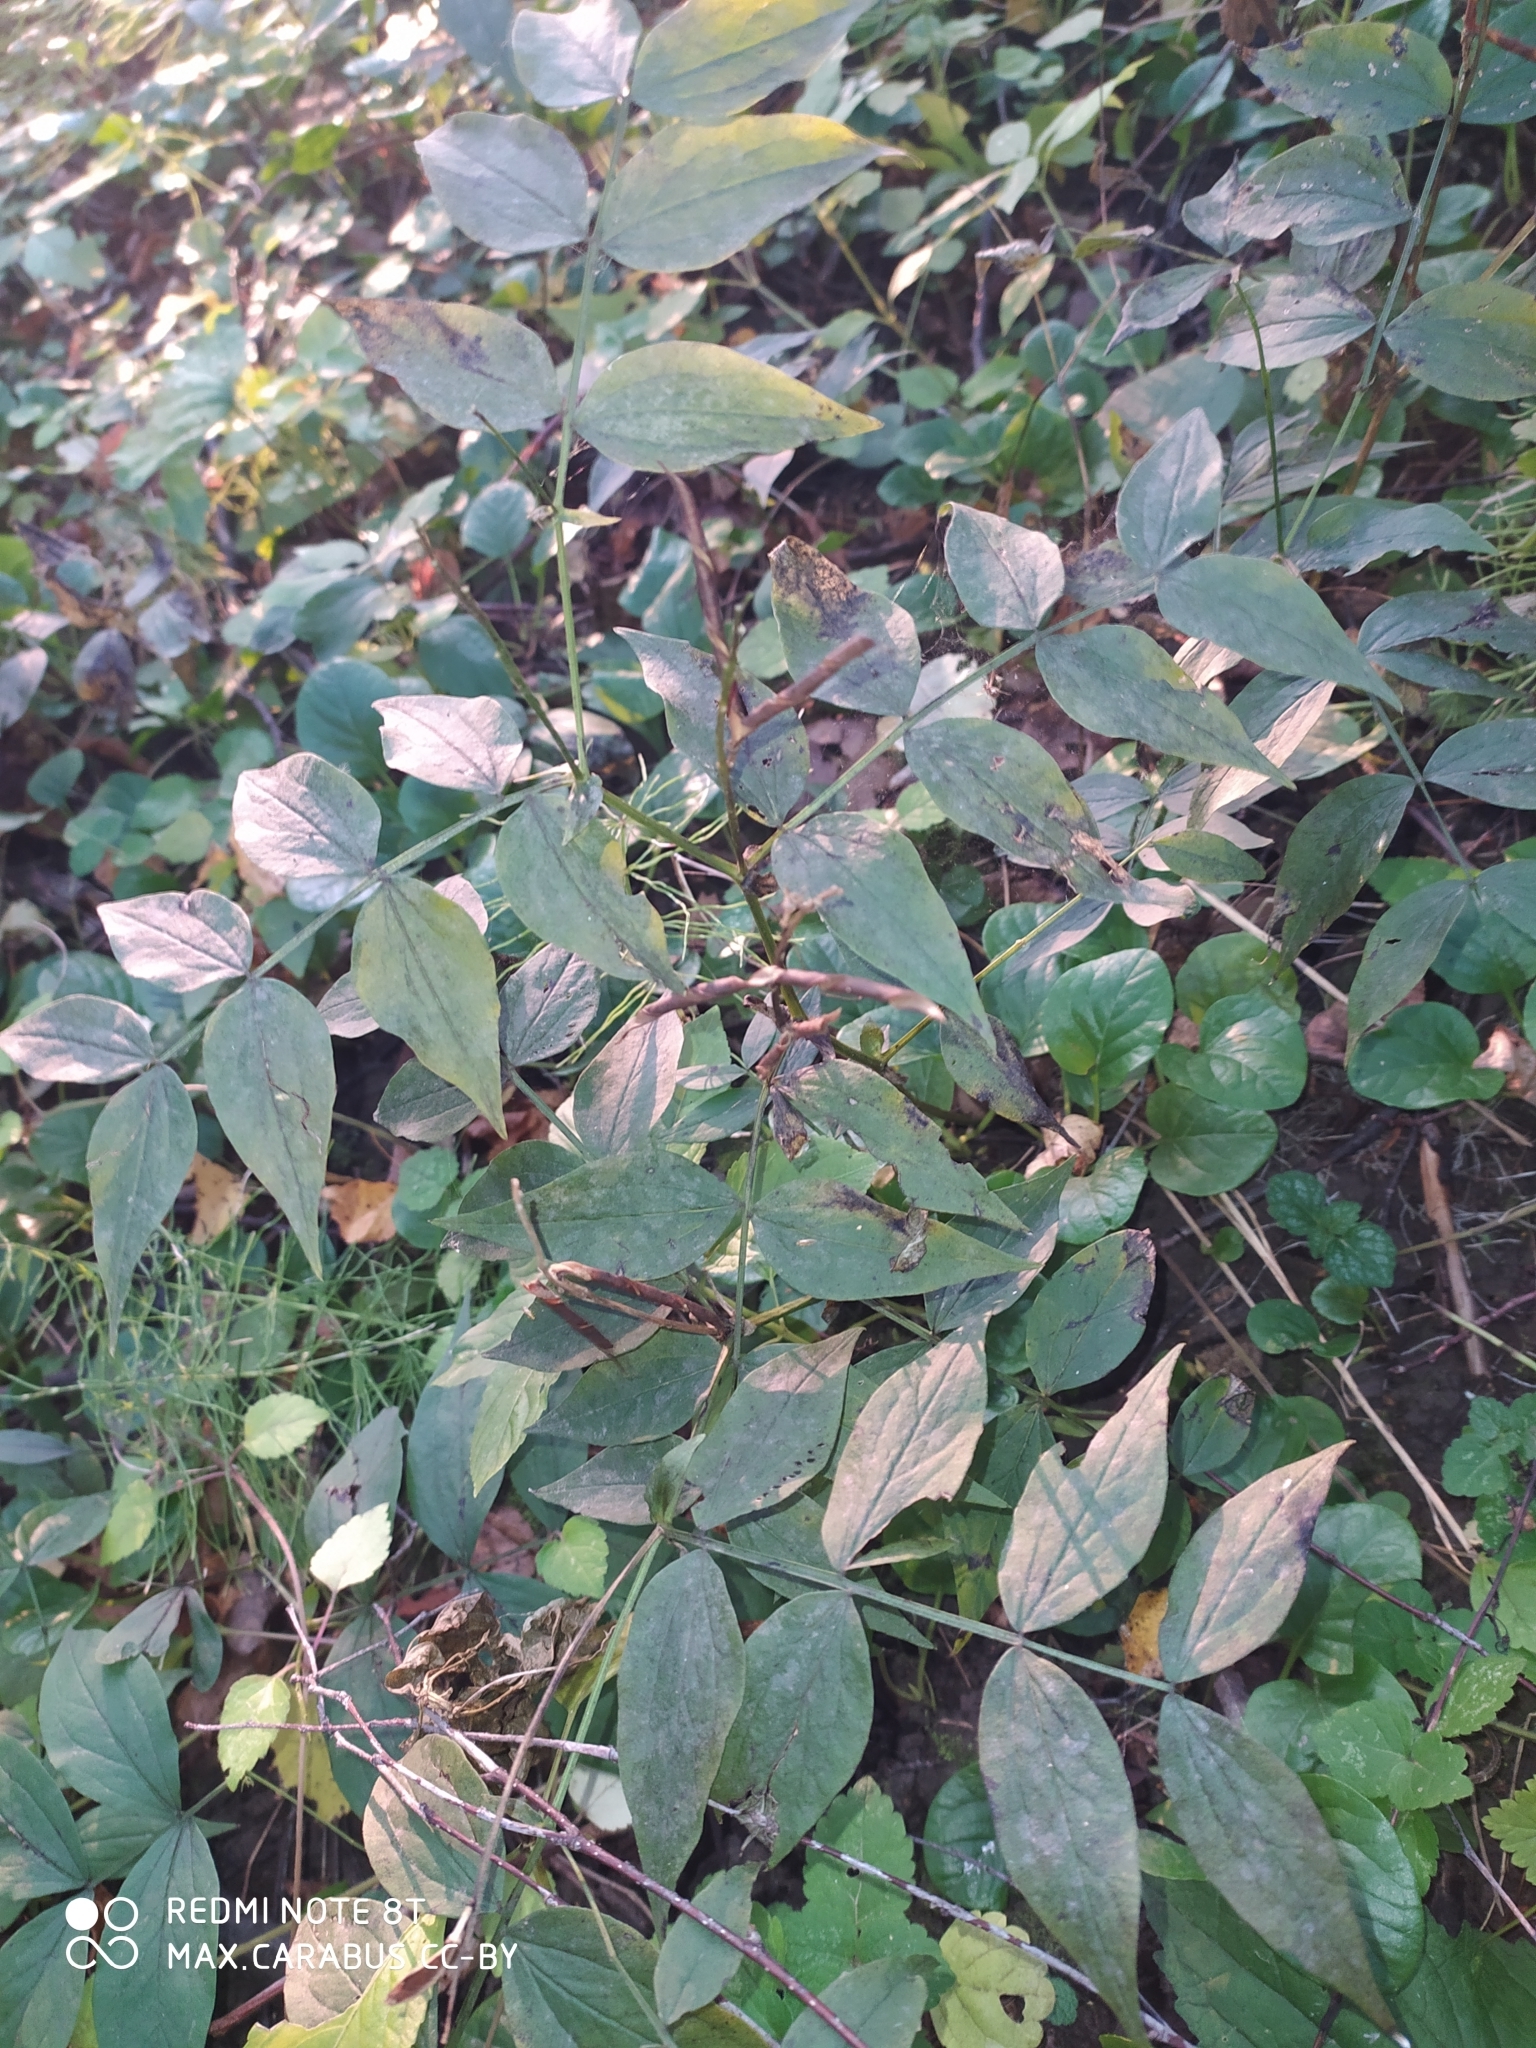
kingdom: Plantae
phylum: Tracheophyta
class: Magnoliopsida
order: Fabales
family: Fabaceae
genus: Lathyrus
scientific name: Lathyrus vernus
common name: Spring pea
